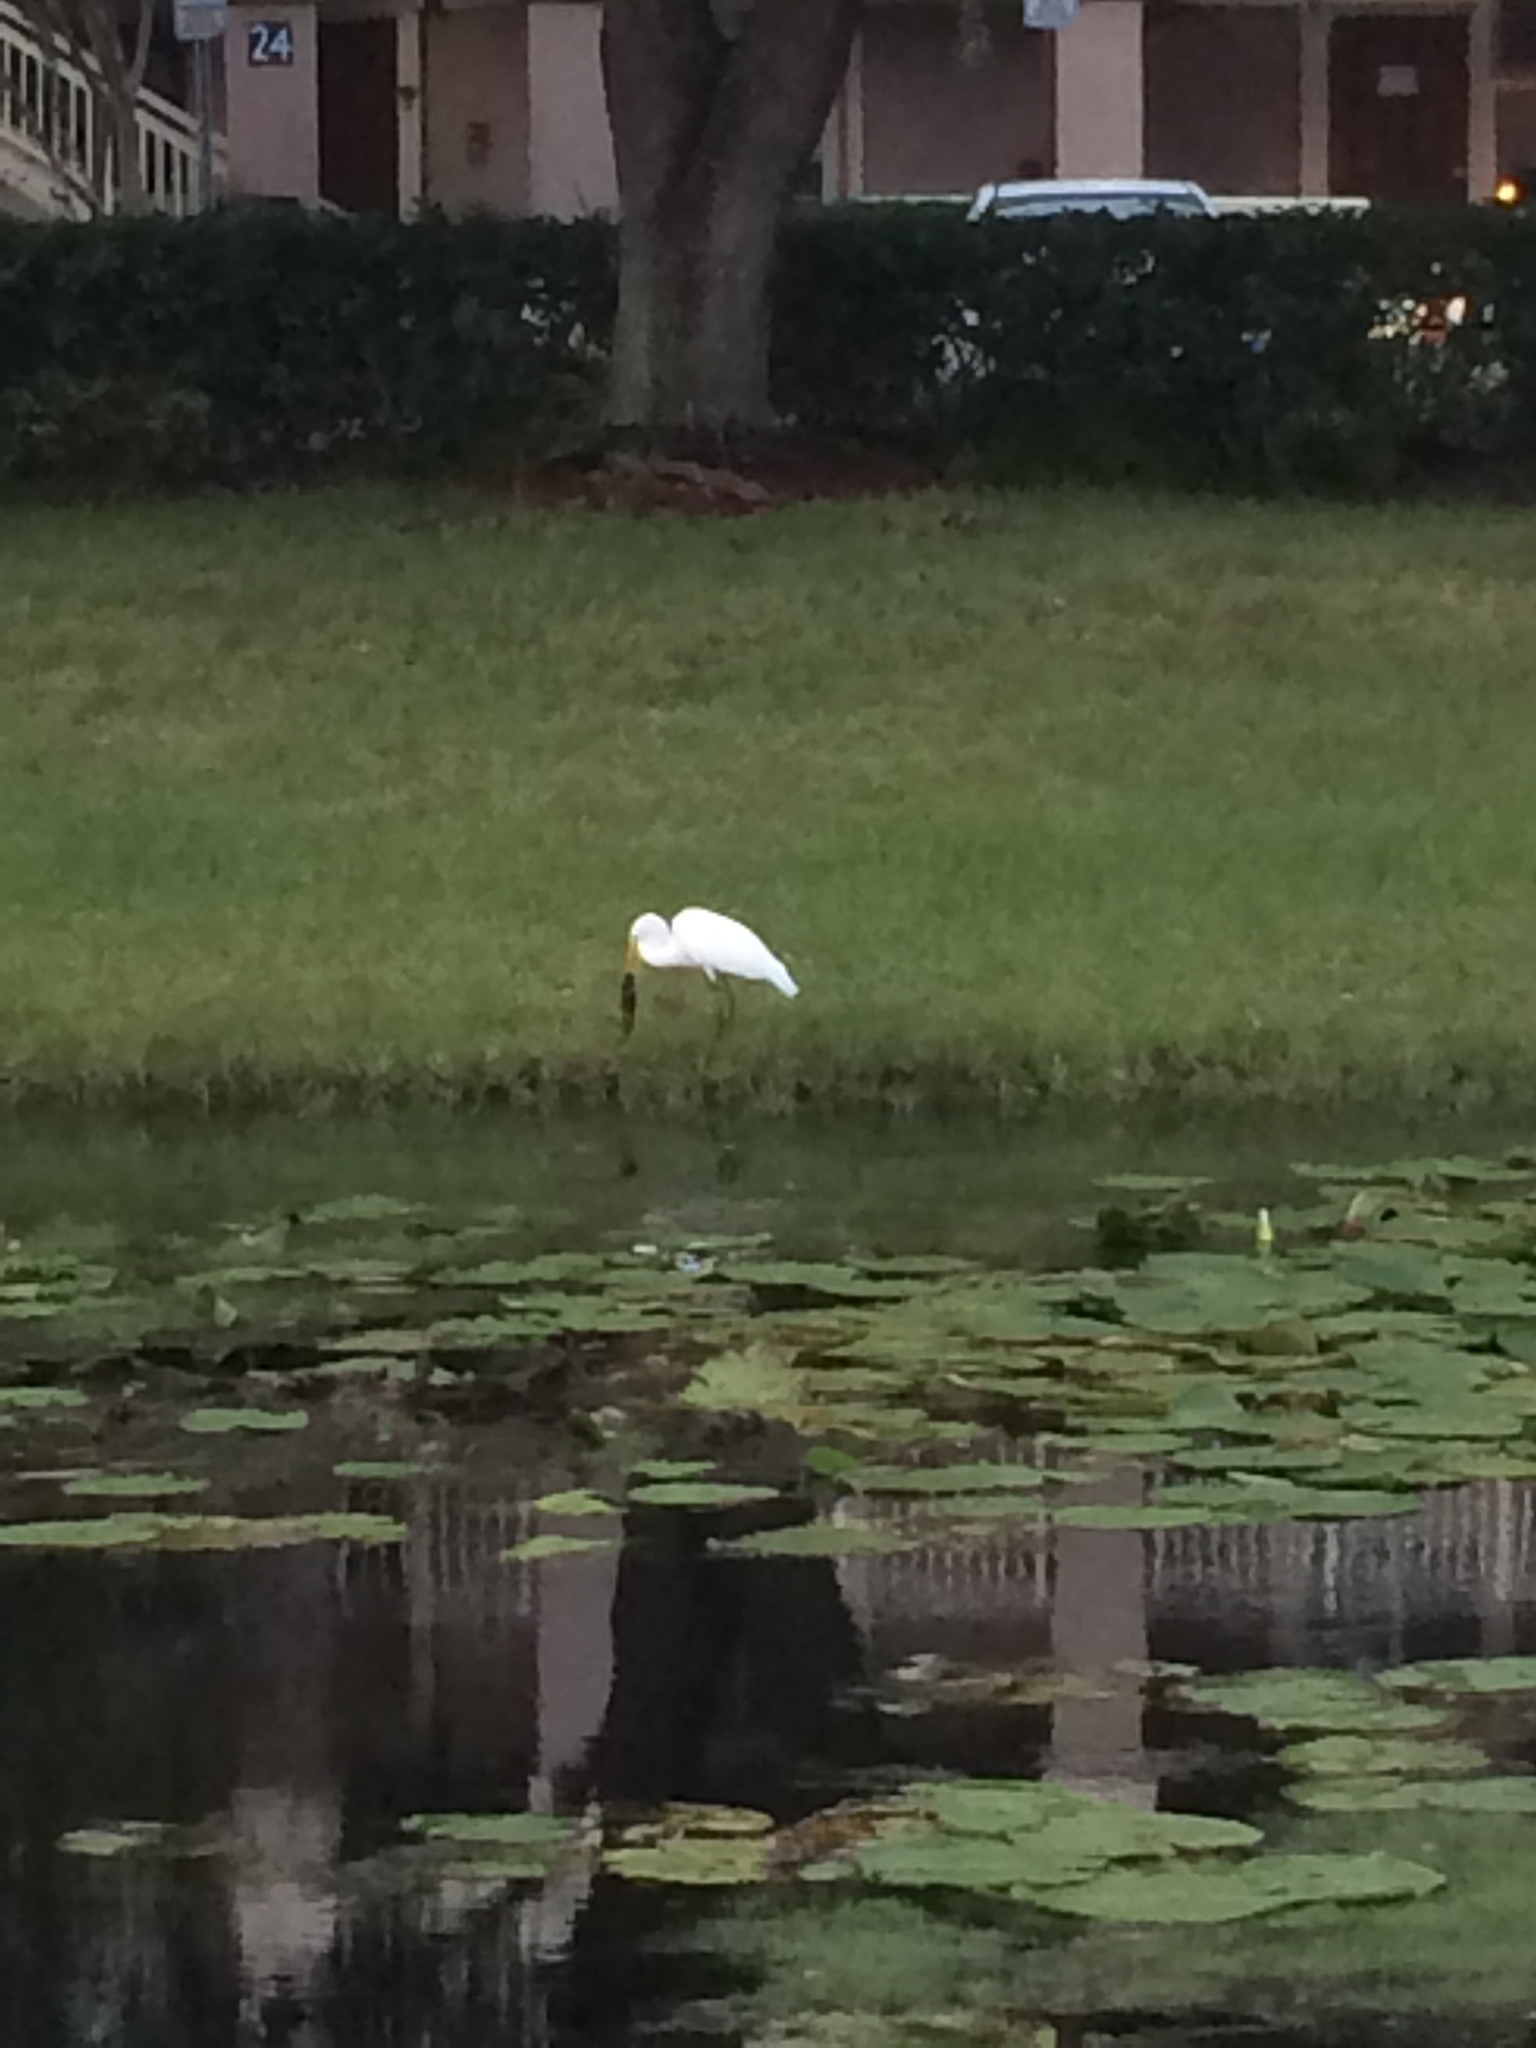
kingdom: Animalia
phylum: Chordata
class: Aves
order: Pelecaniformes
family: Ardeidae
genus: Ardea
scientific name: Ardea alba
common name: Great egret
